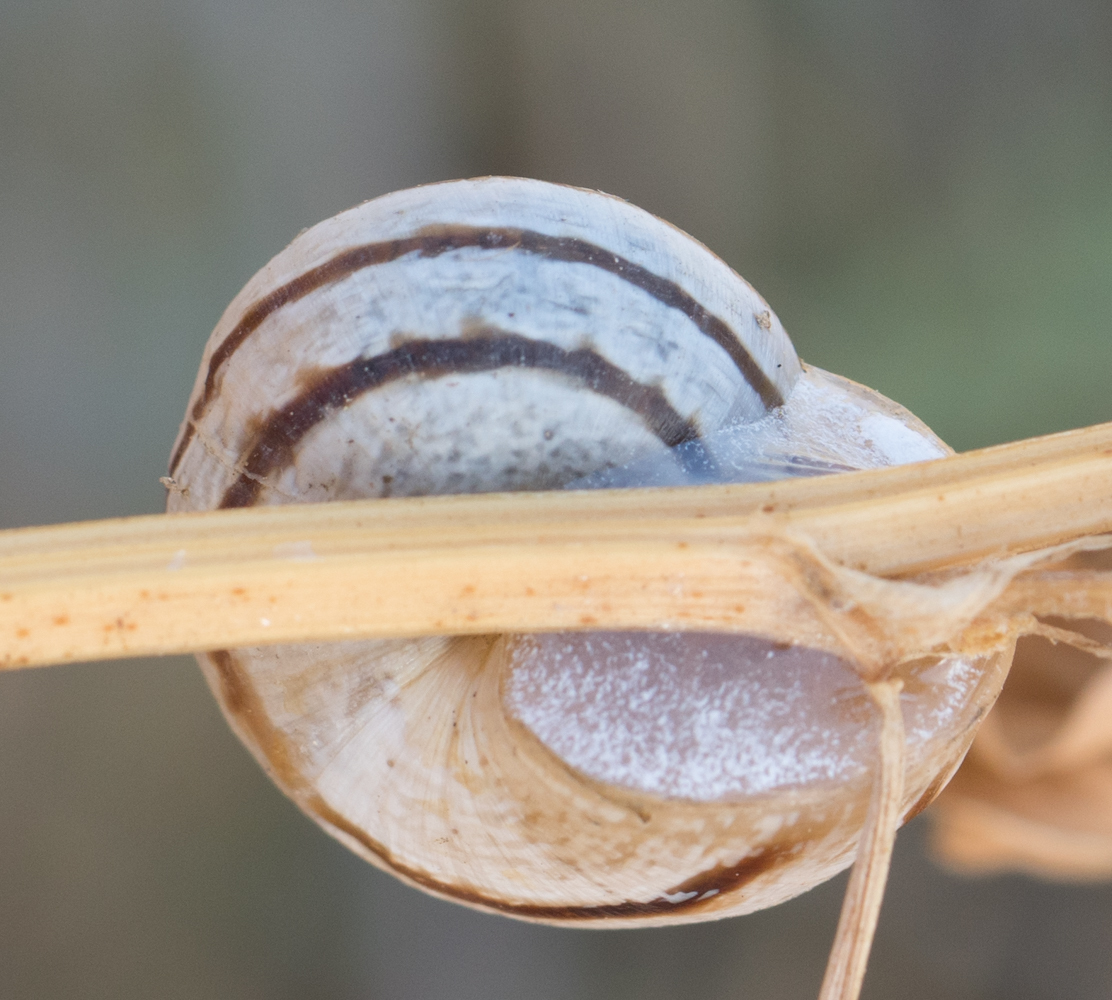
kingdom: Animalia
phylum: Mollusca
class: Gastropoda
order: Stylommatophora
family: Helicidae
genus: Otala
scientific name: Otala lactea
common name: Milk snail
